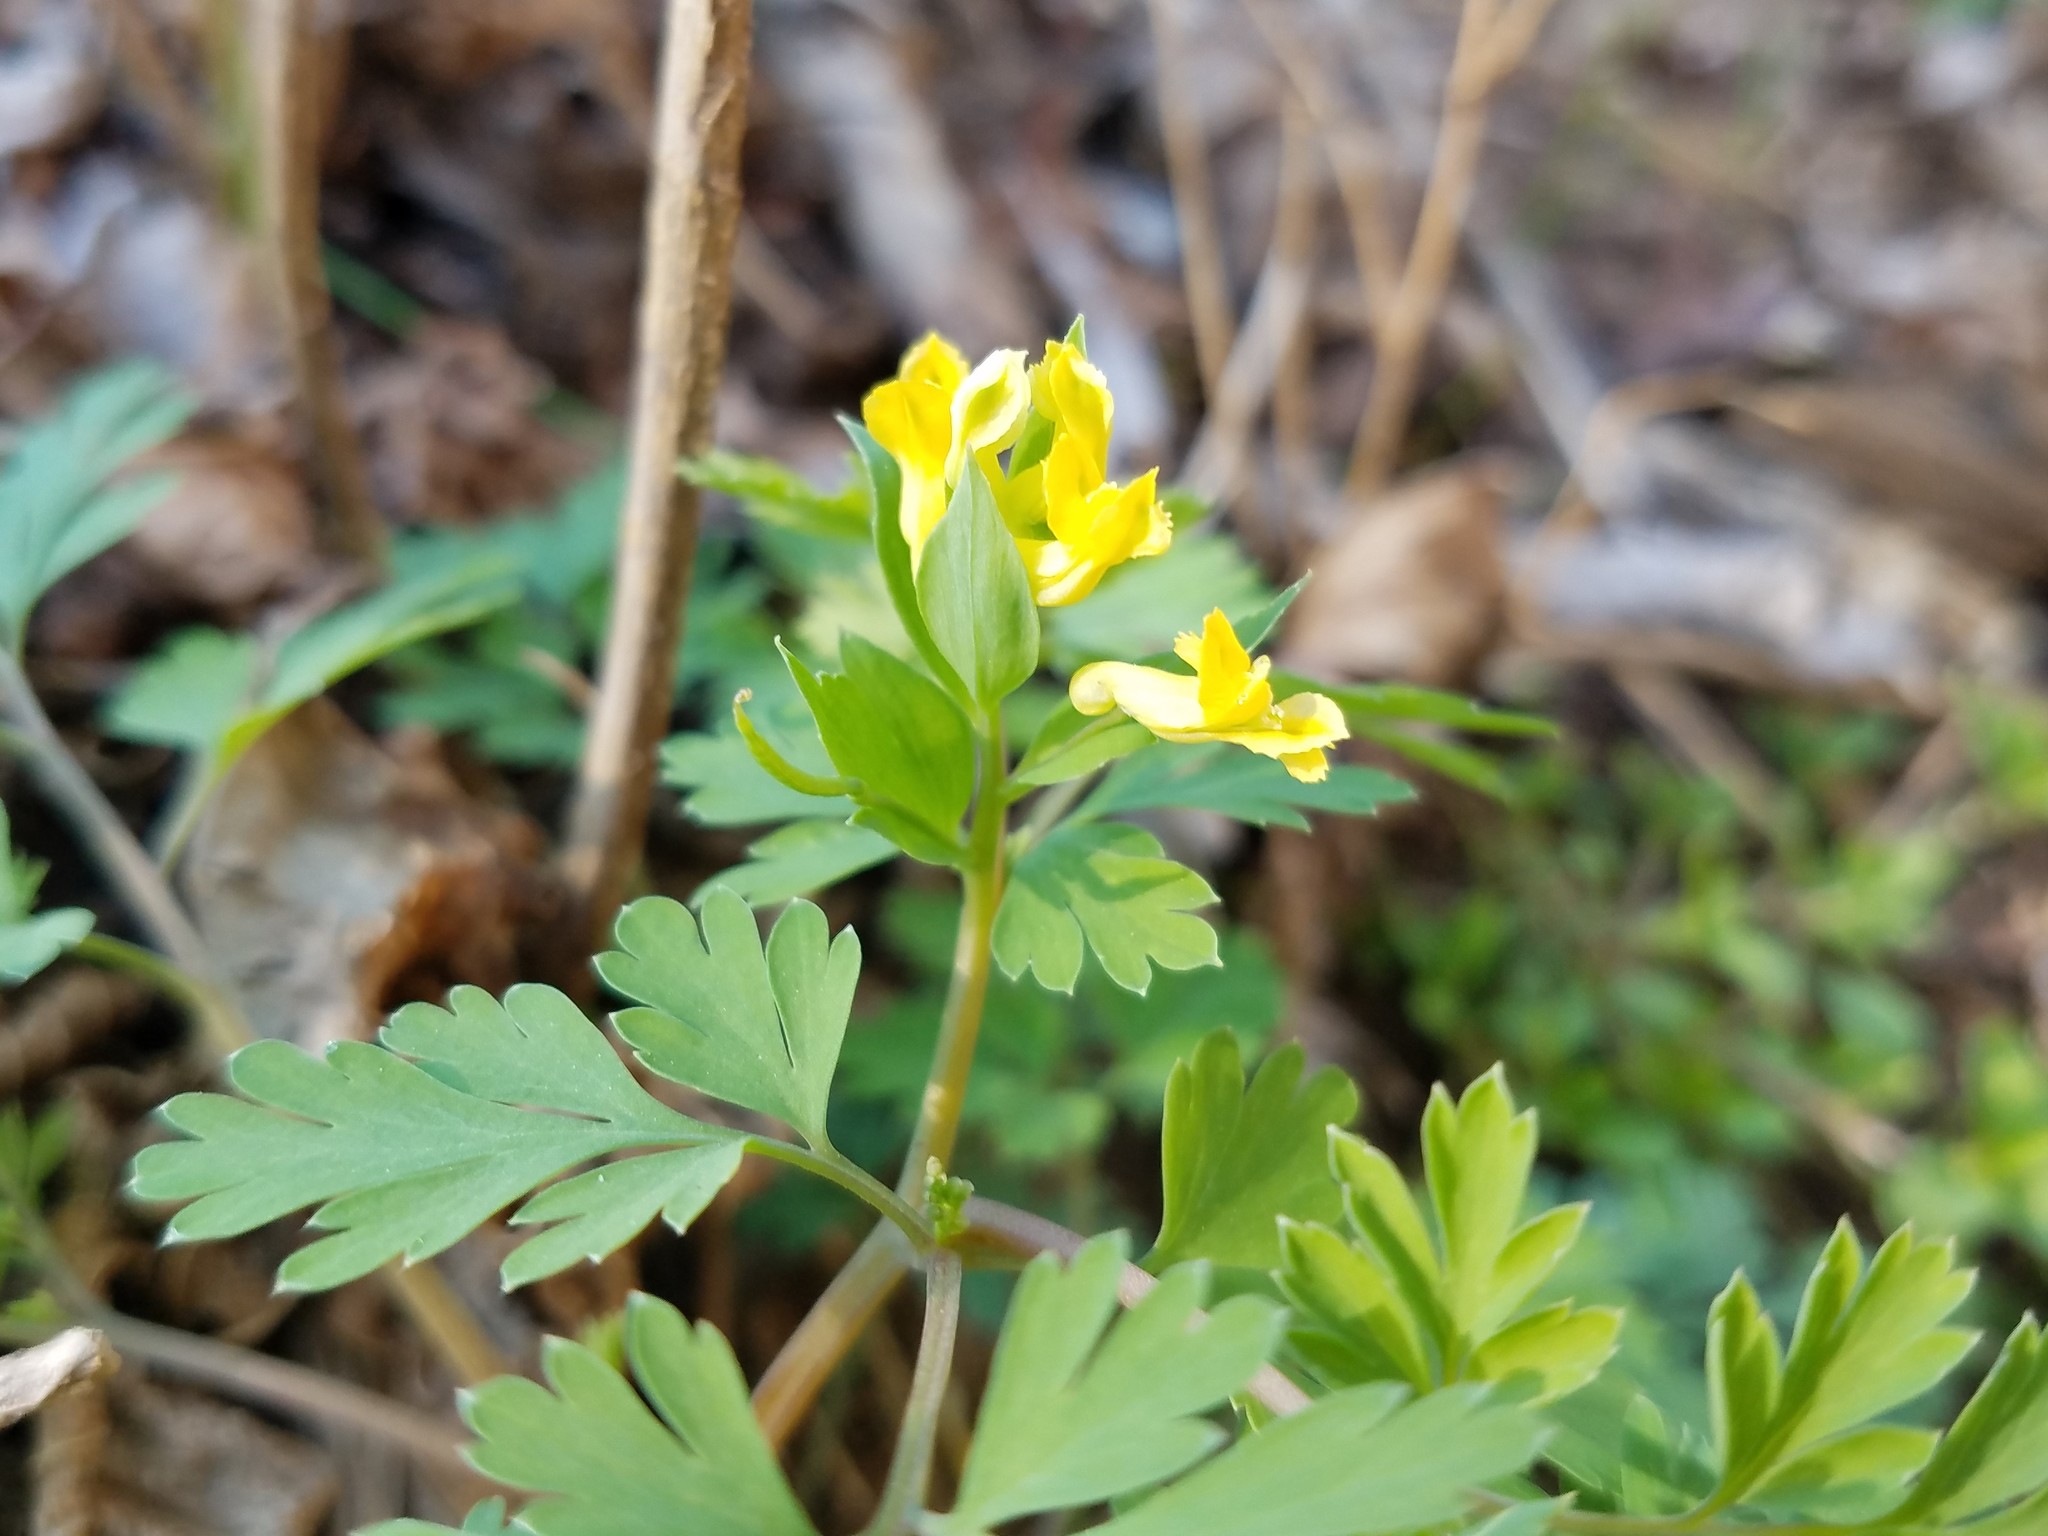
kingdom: Plantae
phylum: Tracheophyta
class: Magnoliopsida
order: Ranunculales
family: Papaveraceae
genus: Corydalis
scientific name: Corydalis flavula
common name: Yellow corydalis
